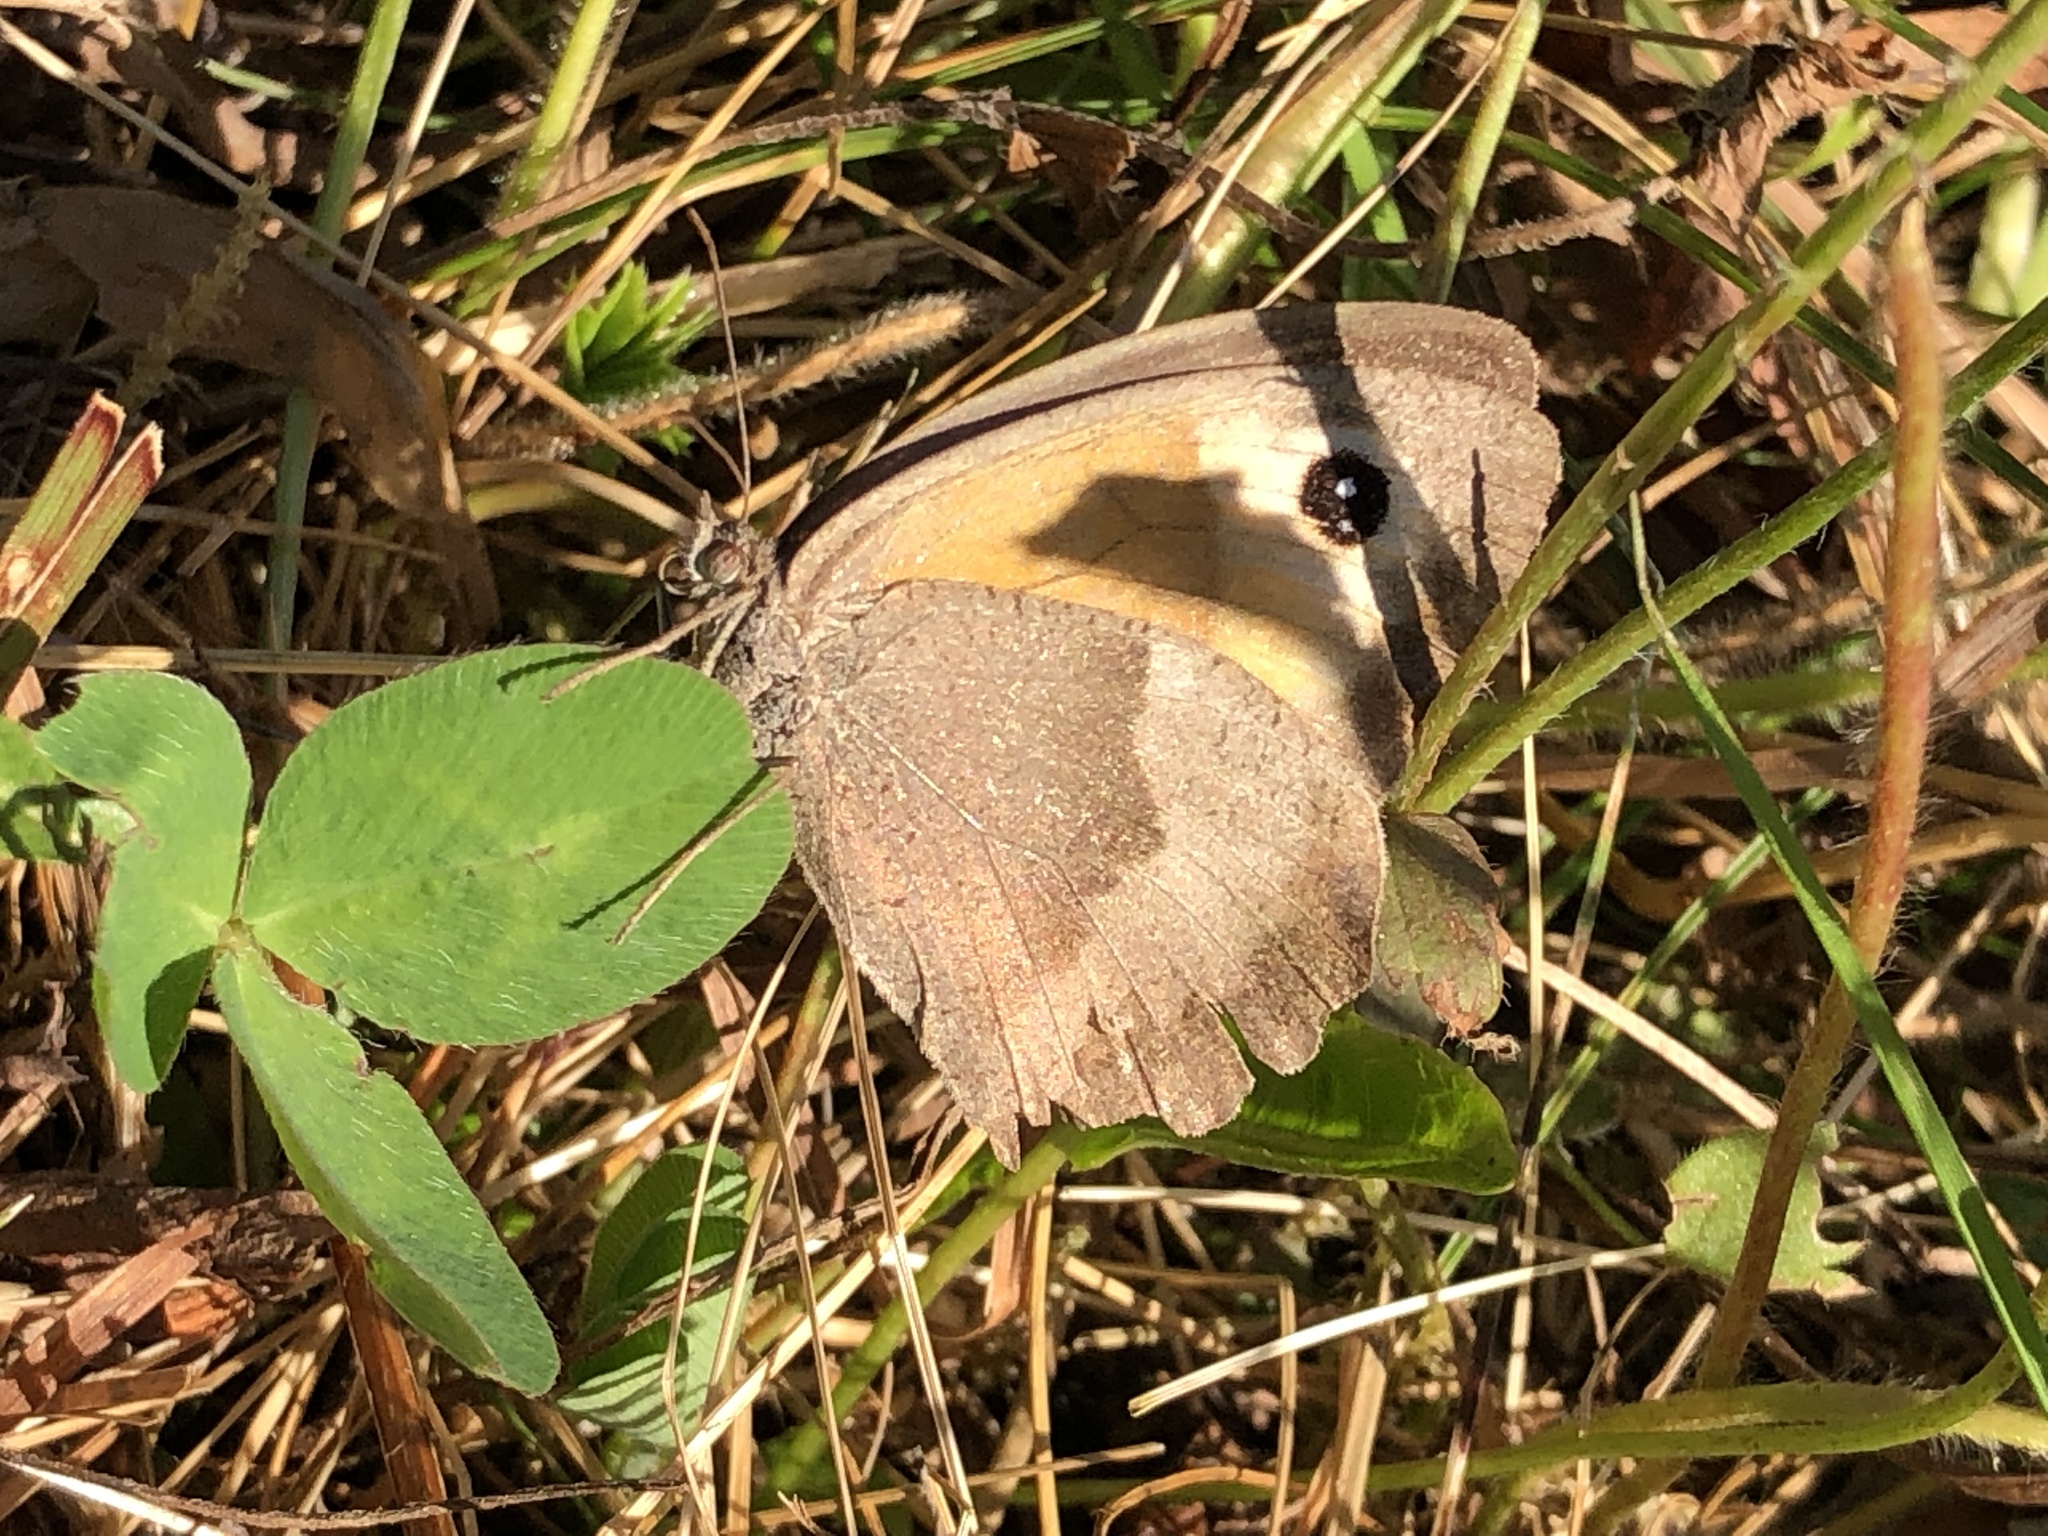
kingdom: Animalia
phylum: Arthropoda
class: Insecta
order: Lepidoptera
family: Nymphalidae
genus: Maniola
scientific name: Maniola jurtina
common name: Meadow brown
